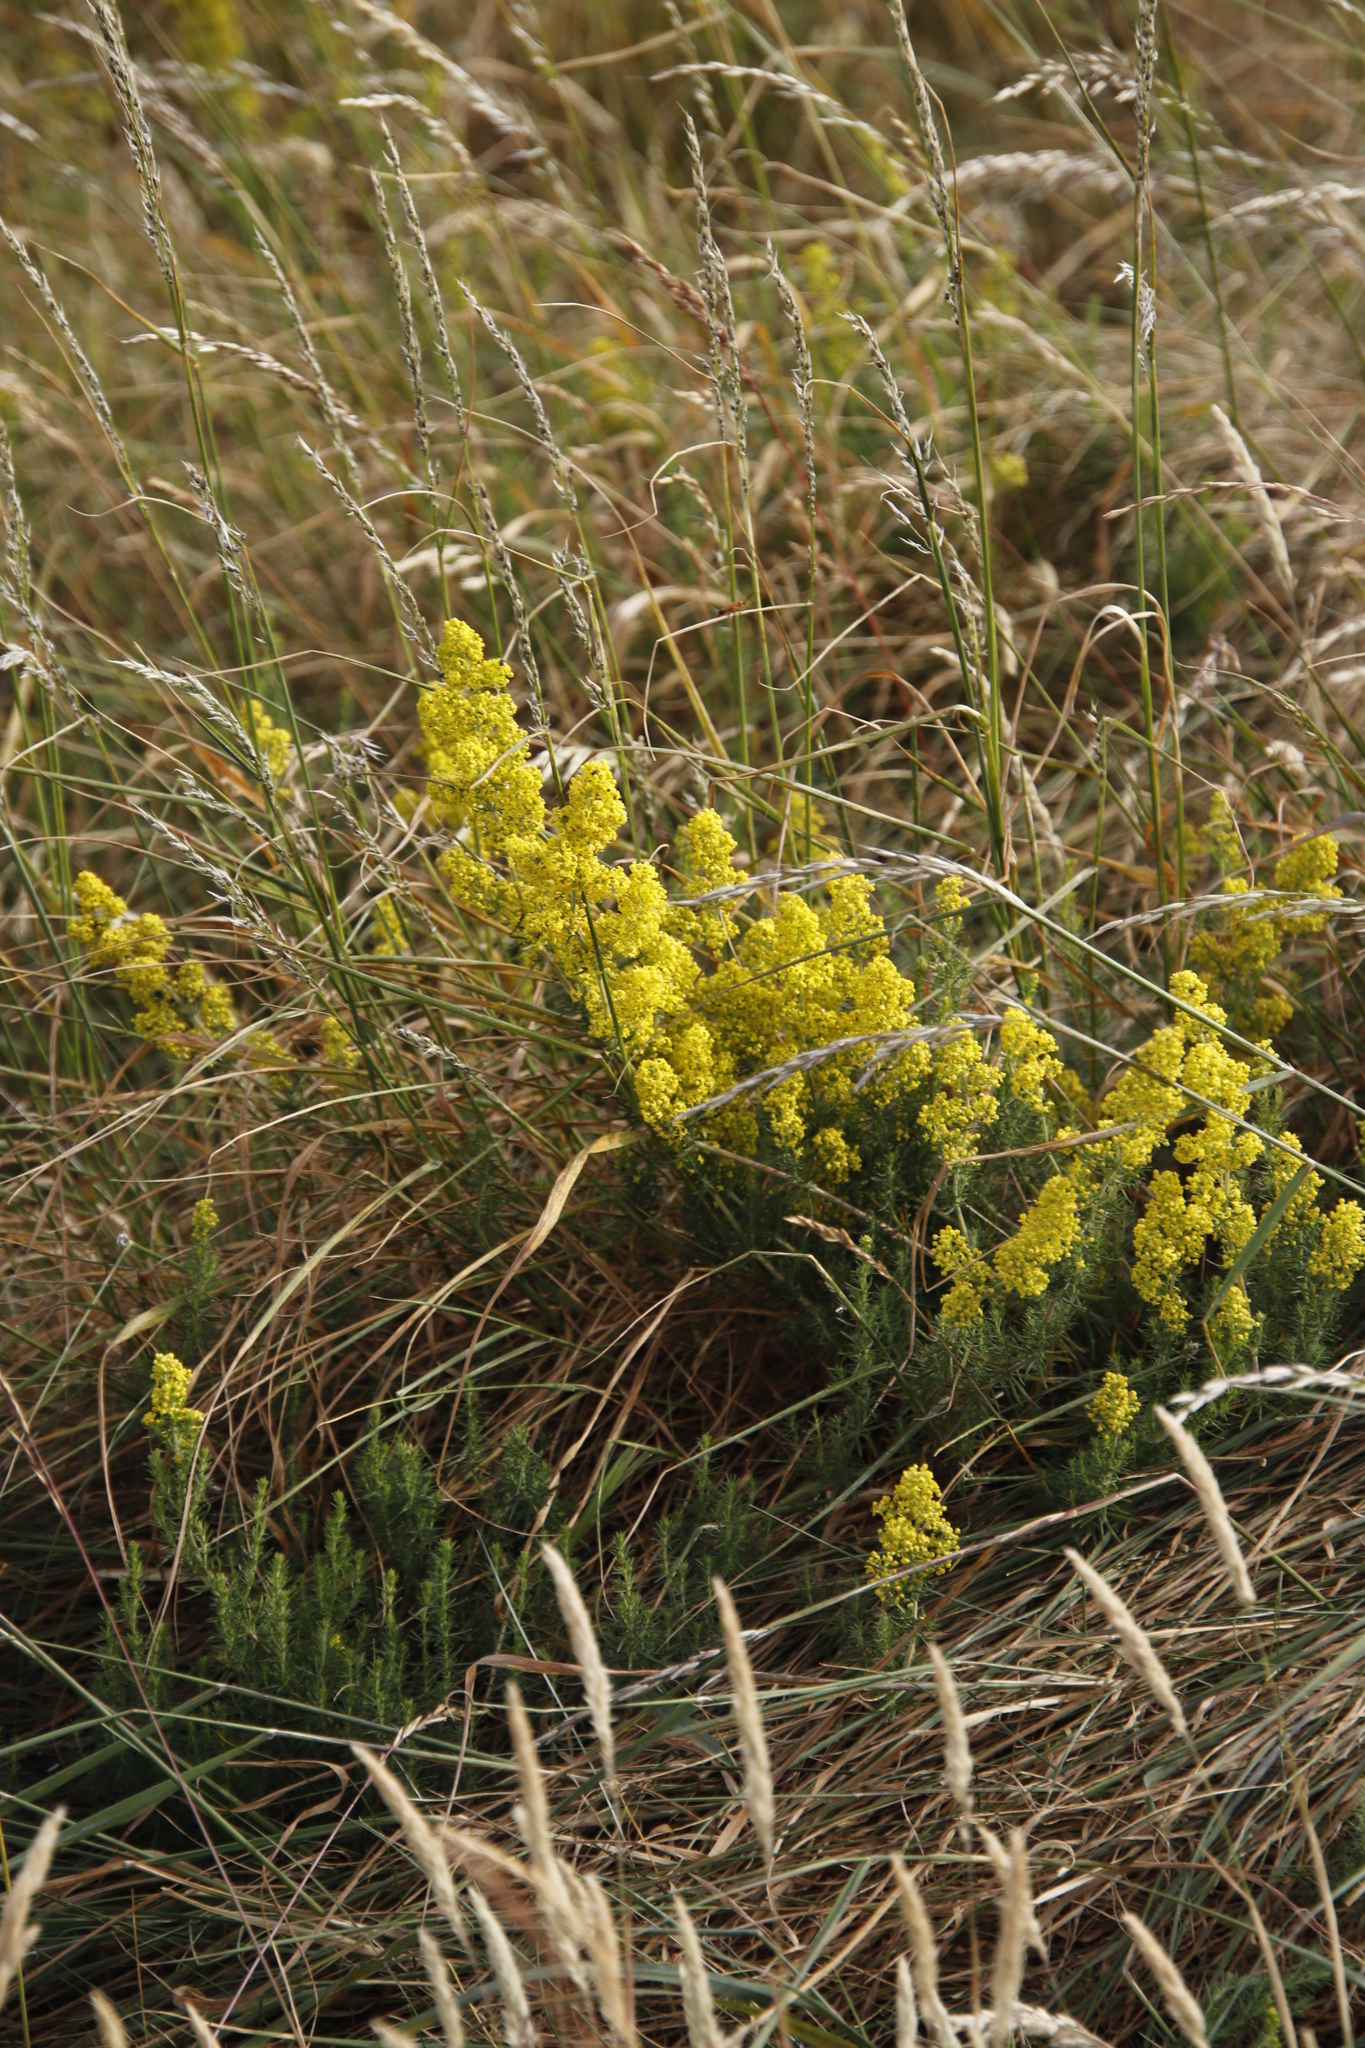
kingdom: Plantae
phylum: Tracheophyta
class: Magnoliopsida
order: Gentianales
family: Rubiaceae
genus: Galium
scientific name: Galium verum
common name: Lady's bedstraw
